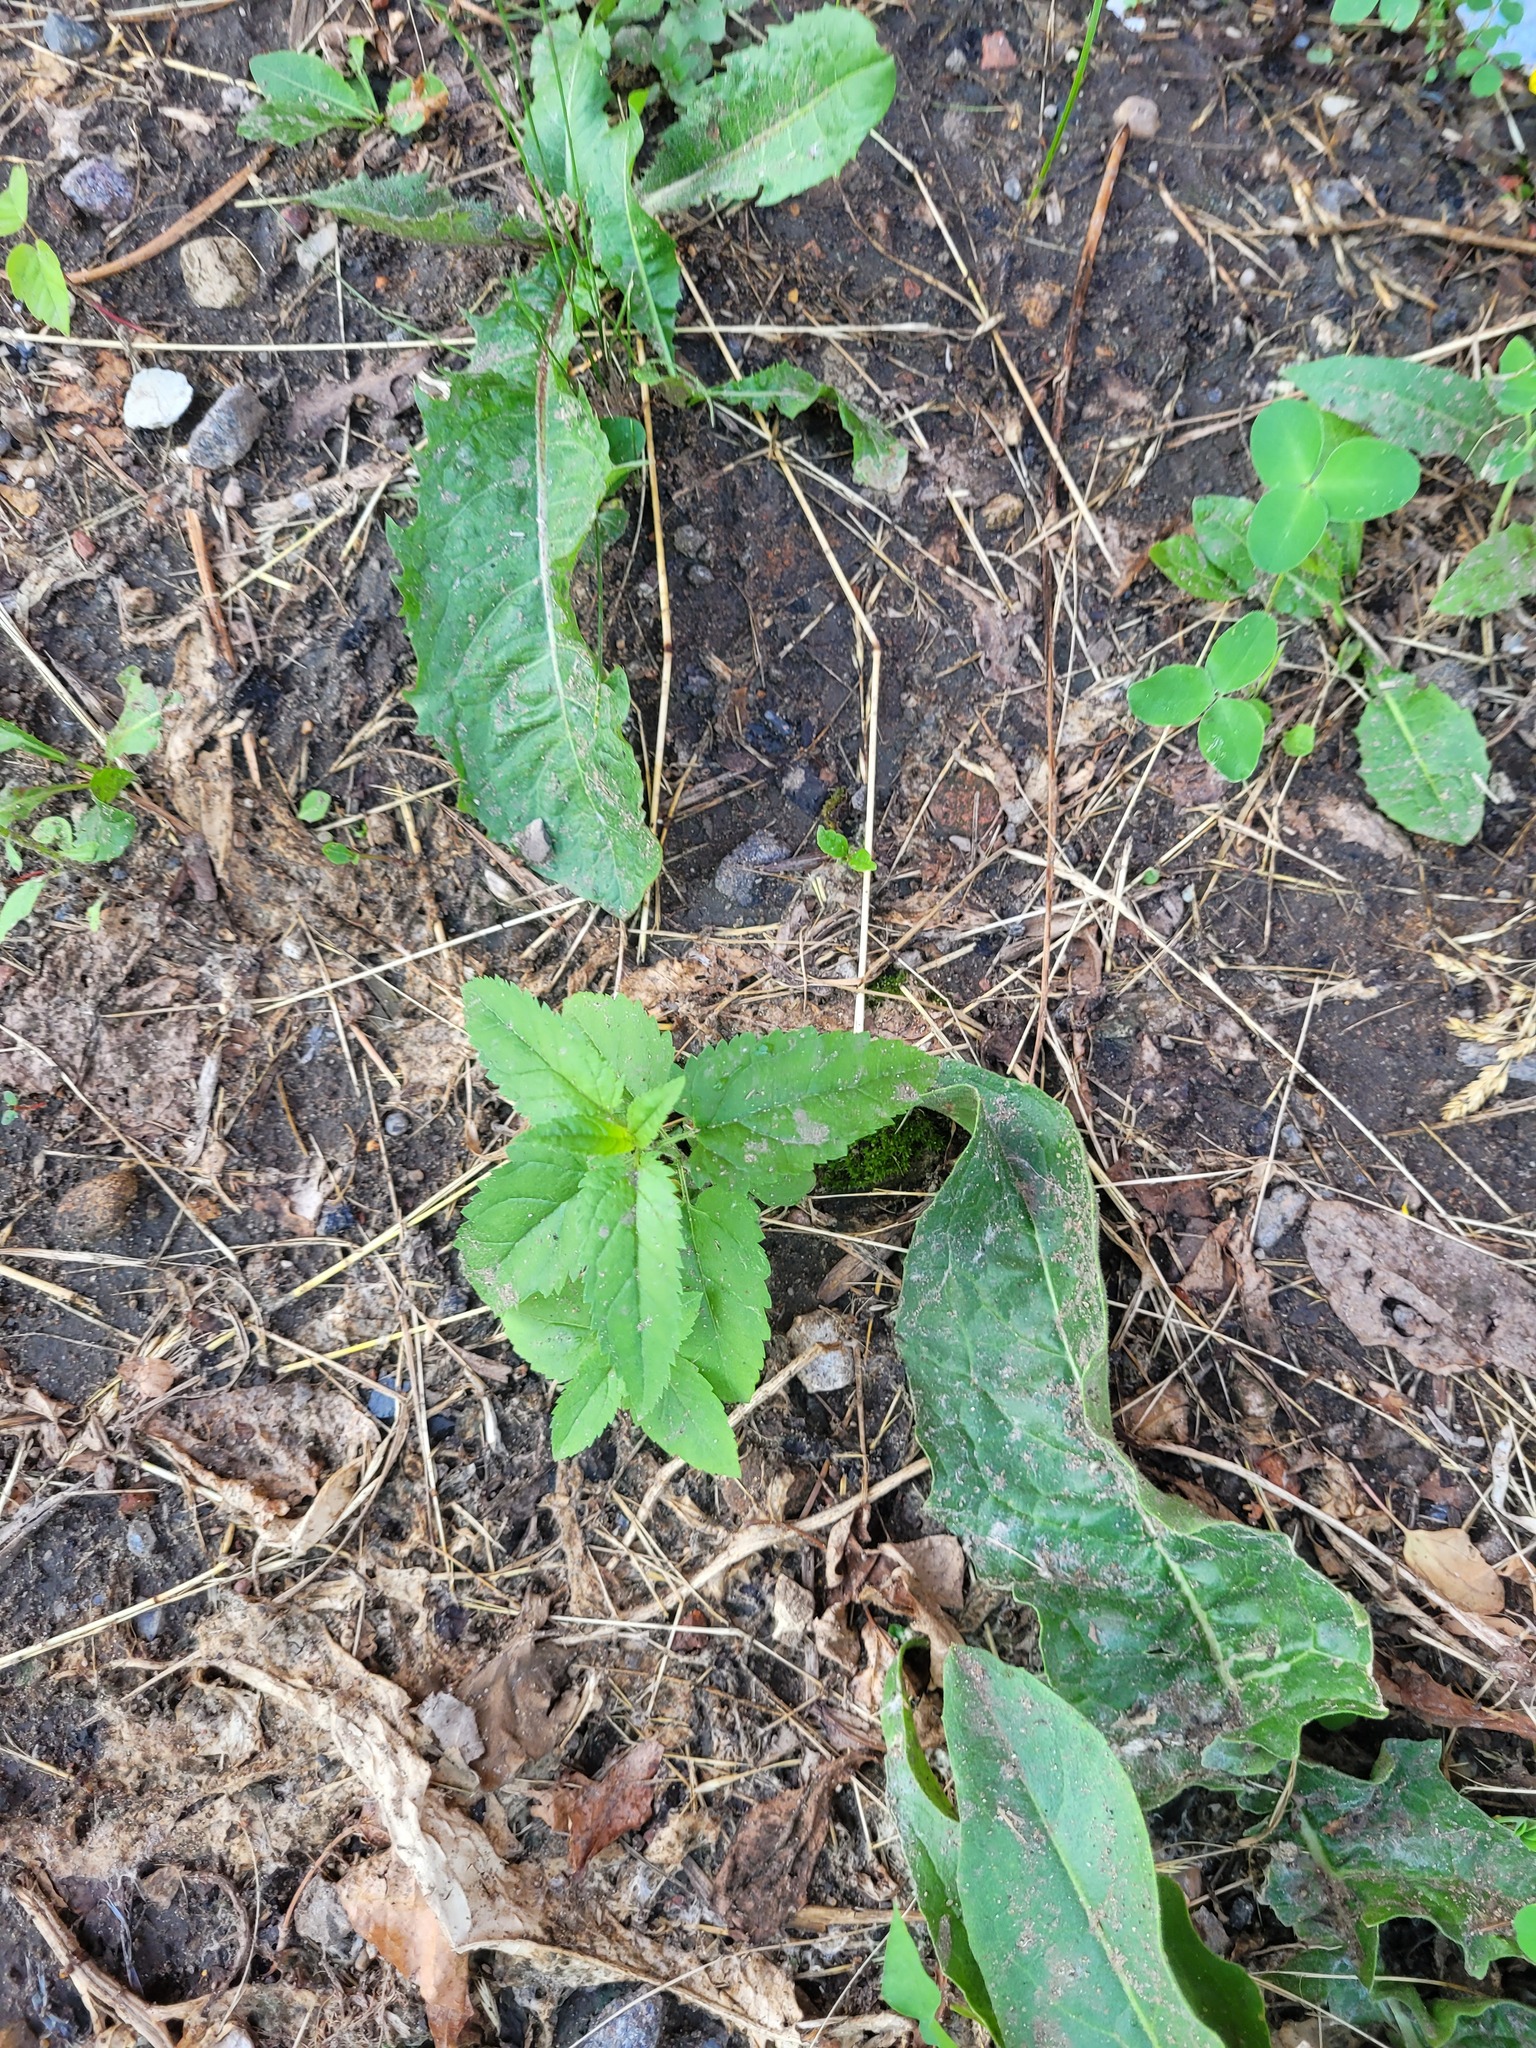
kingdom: Plantae
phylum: Tracheophyta
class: Magnoliopsida
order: Lamiales
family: Plantaginaceae
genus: Veronica
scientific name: Veronica longifolia
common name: Garden speedwell
